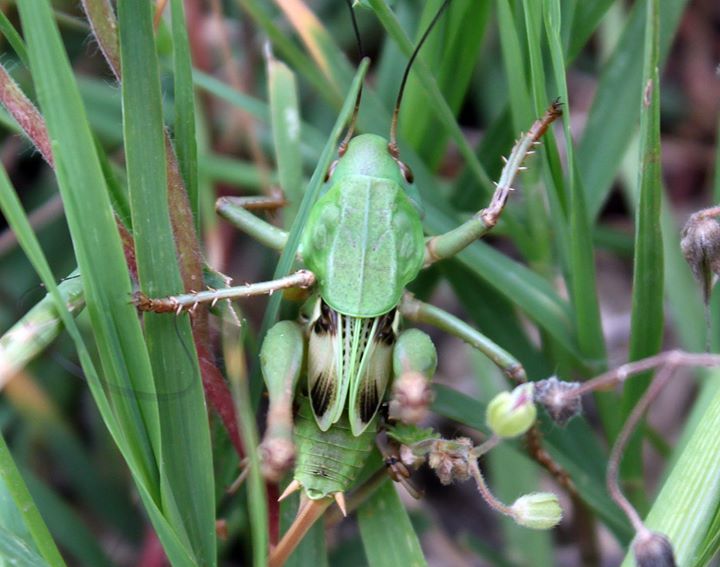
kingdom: Animalia
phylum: Arthropoda
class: Insecta
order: Orthoptera
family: Tettigoniidae
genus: Decticus
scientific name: Decticus verrucivorus
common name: Wart-biter
